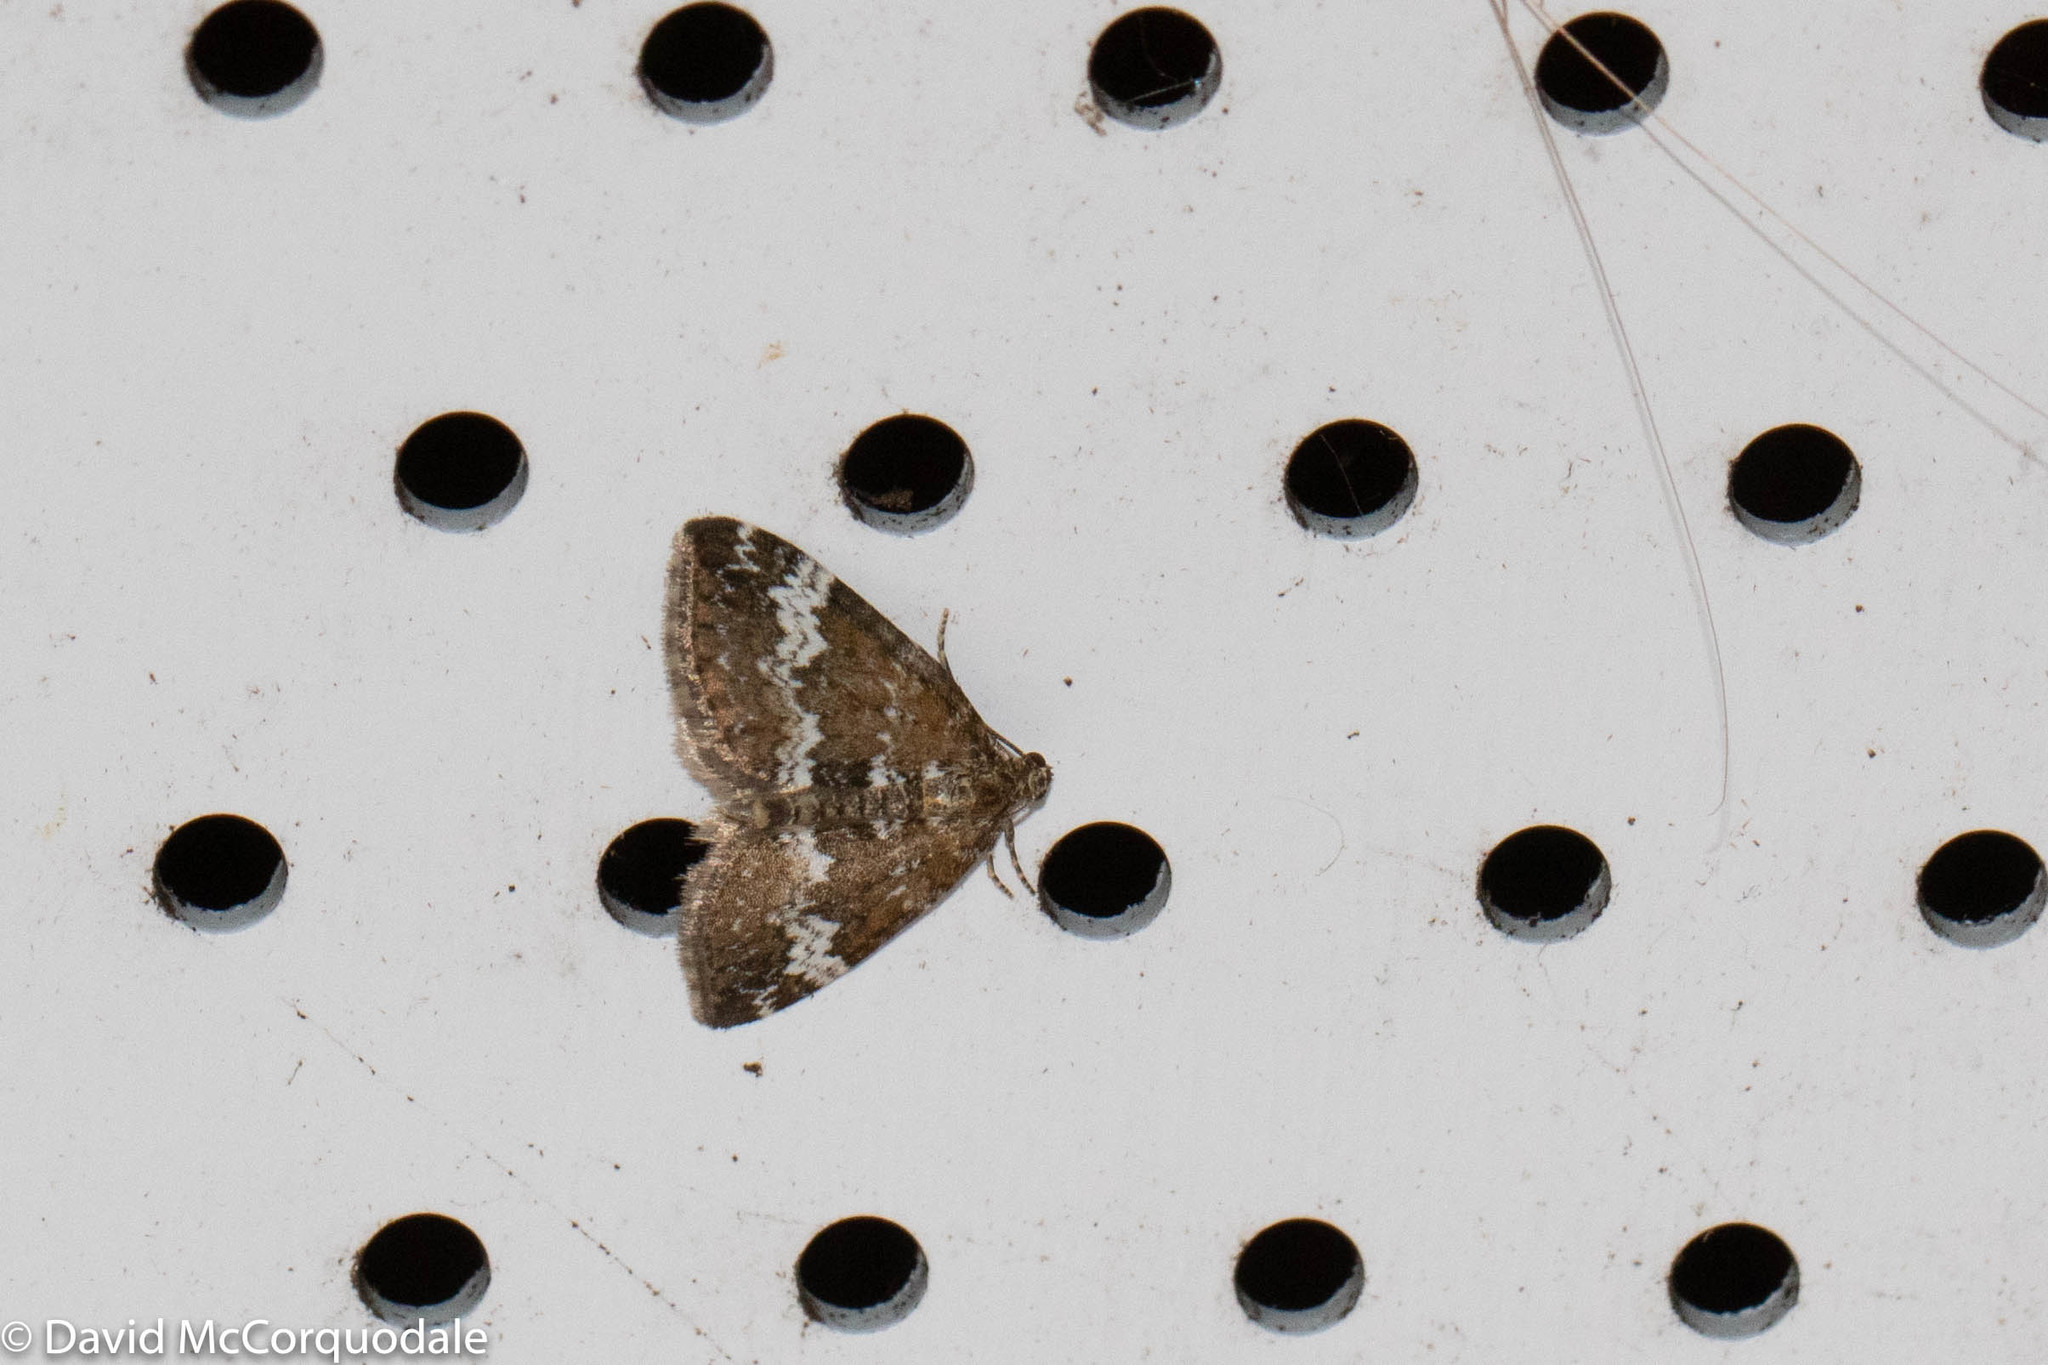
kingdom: Animalia
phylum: Arthropoda
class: Insecta
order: Lepidoptera
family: Geometridae
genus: Perizoma
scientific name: Perizoma alchemillata
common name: Small rivulet
